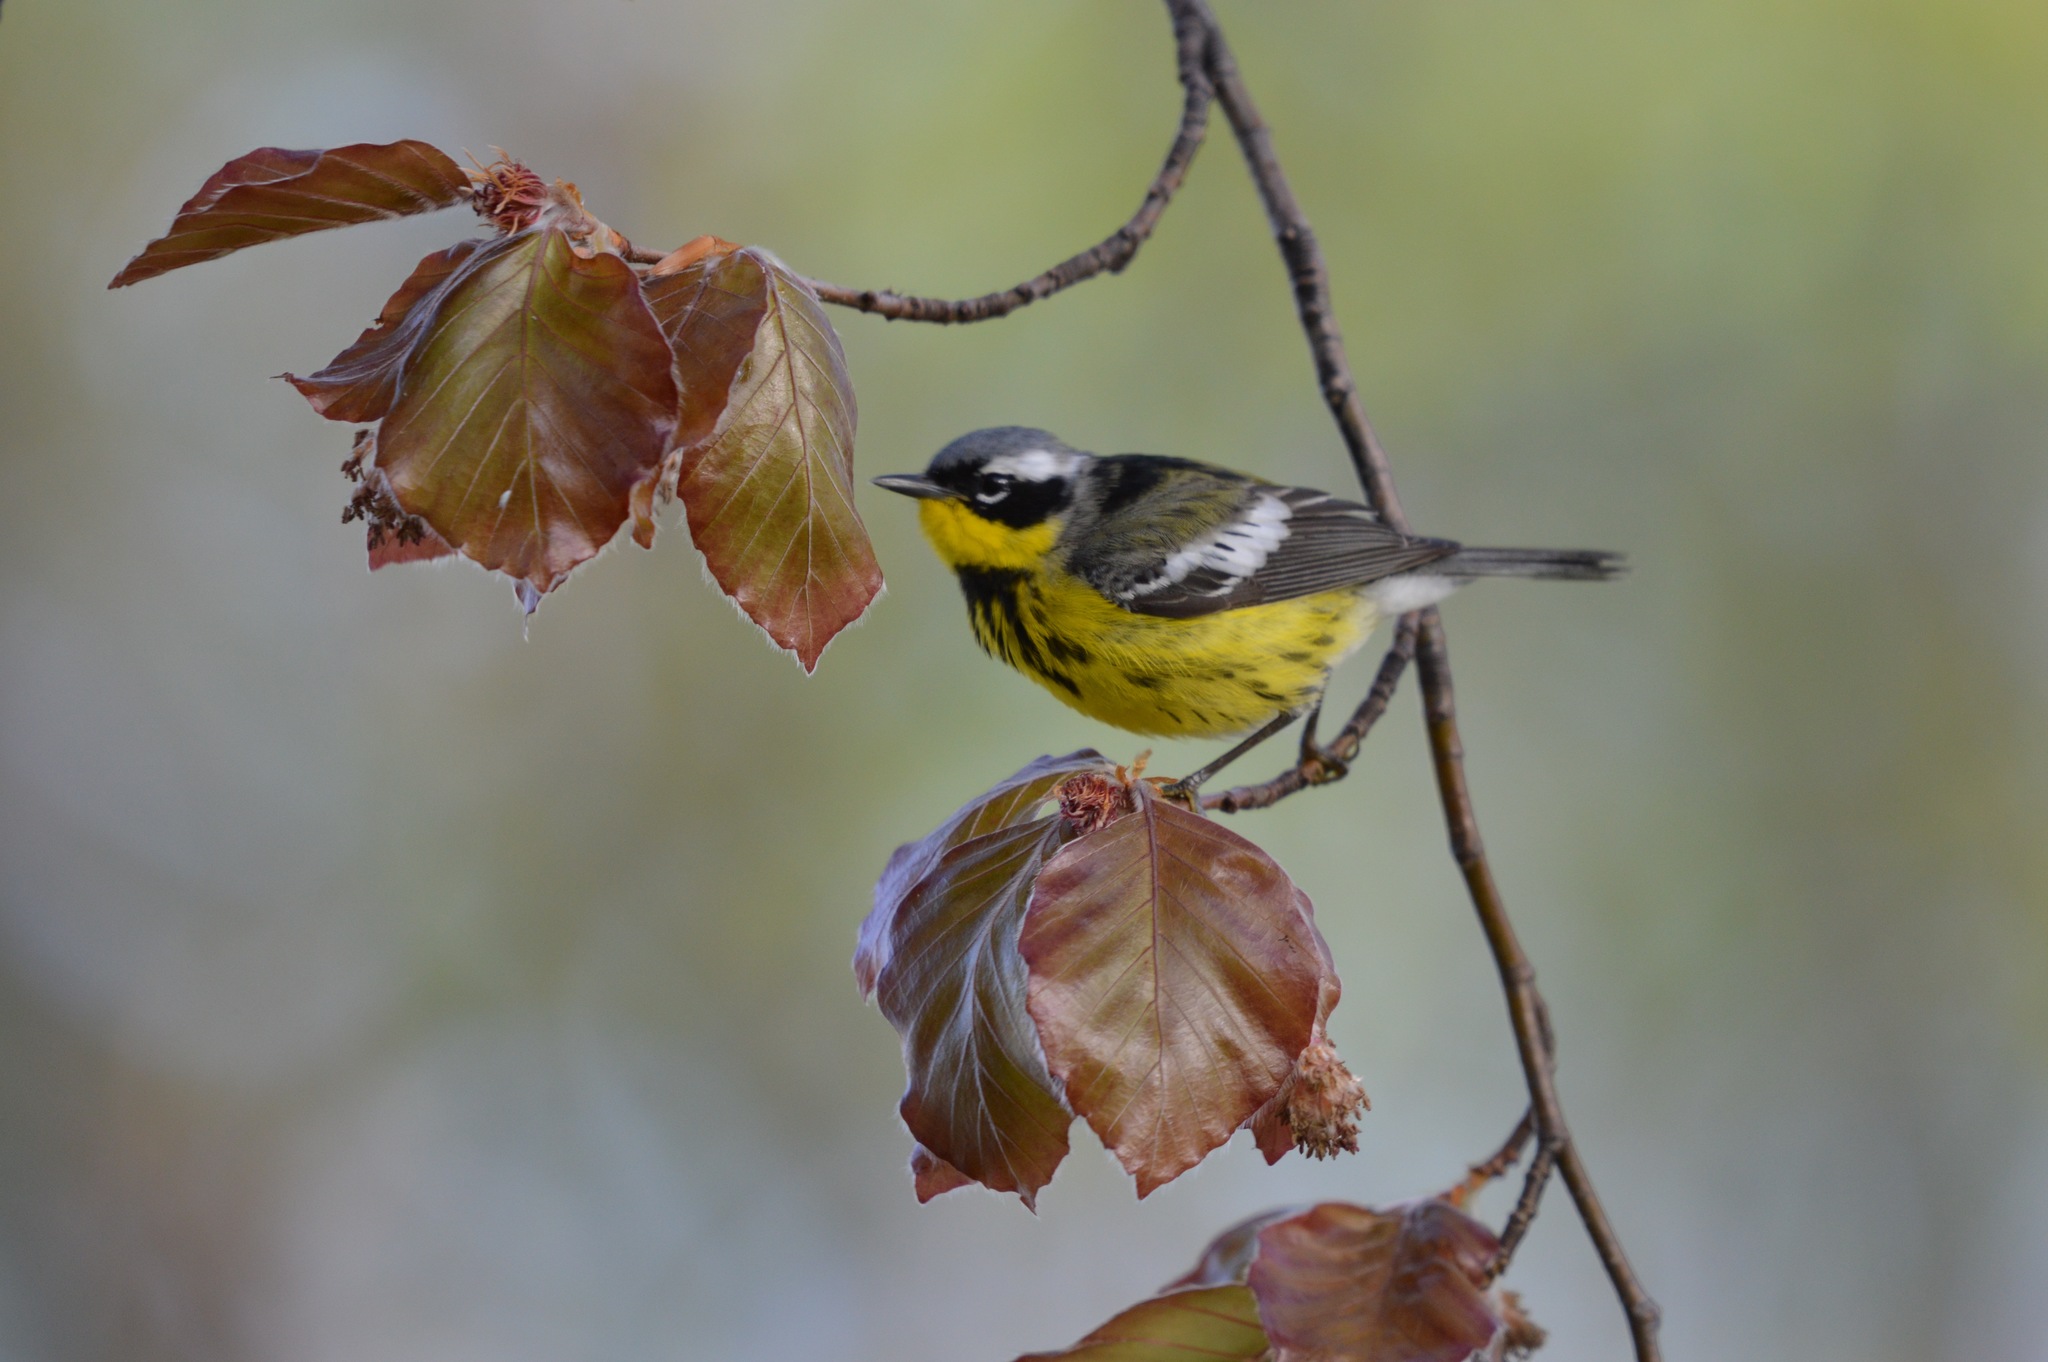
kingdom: Animalia
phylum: Chordata
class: Aves
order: Passeriformes
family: Parulidae
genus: Setophaga
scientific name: Setophaga magnolia
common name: Magnolia warbler
